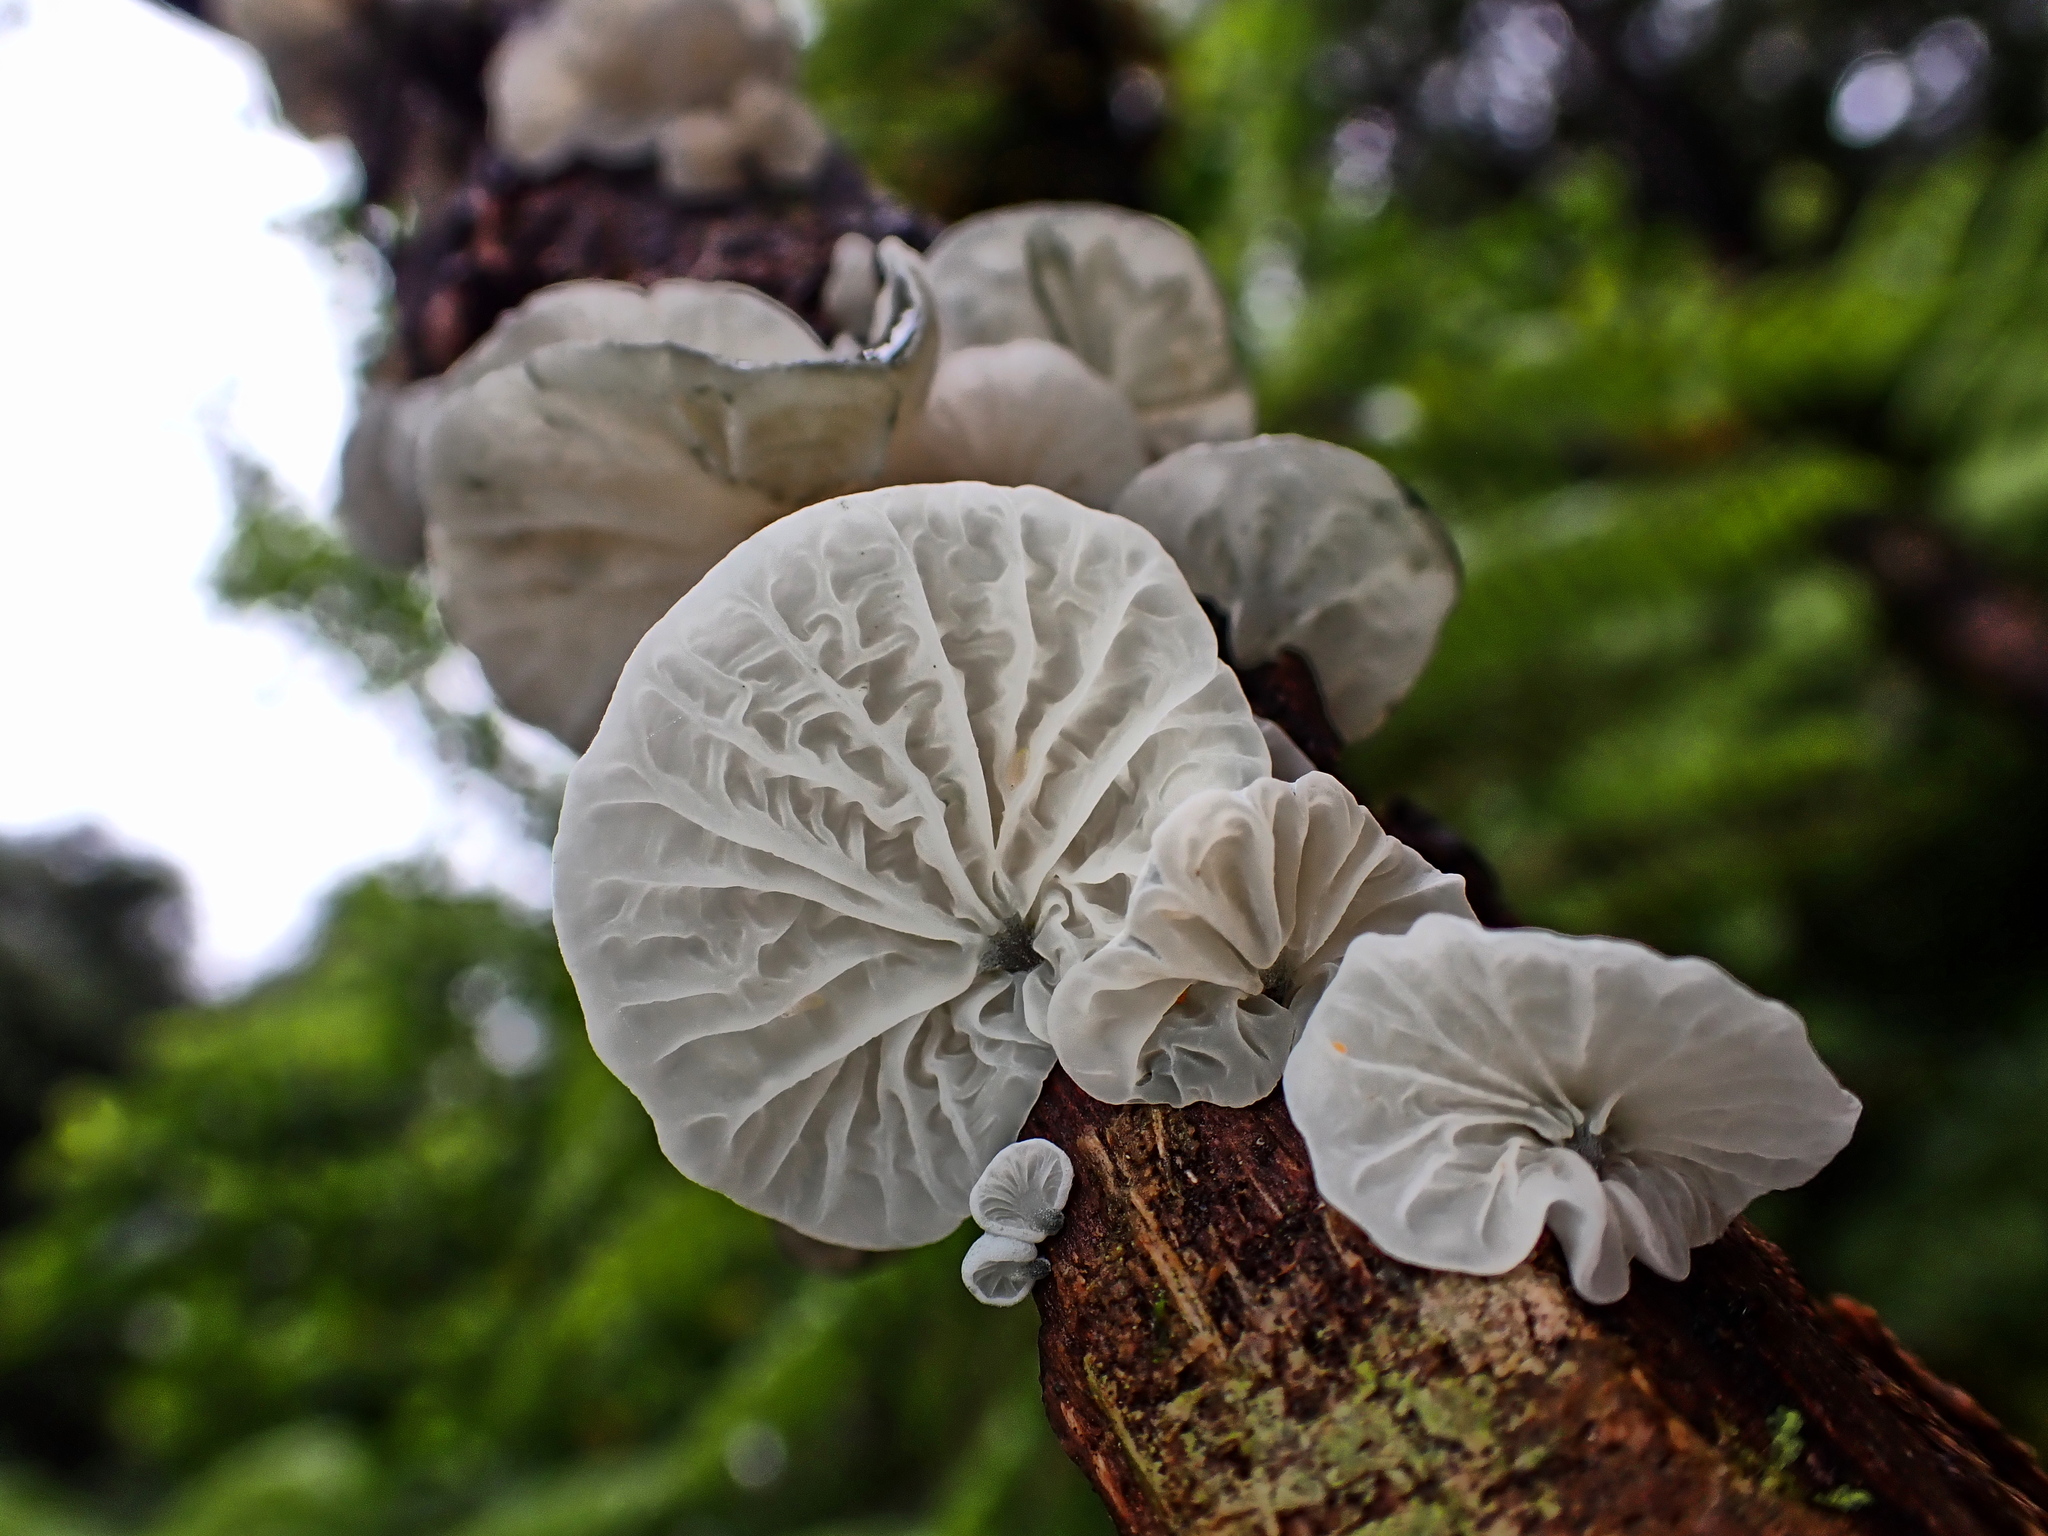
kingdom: Fungi
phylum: Basidiomycota
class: Agaricomycetes
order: Agaricales
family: Marasmiaceae
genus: Campanella
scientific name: Campanella tristis
